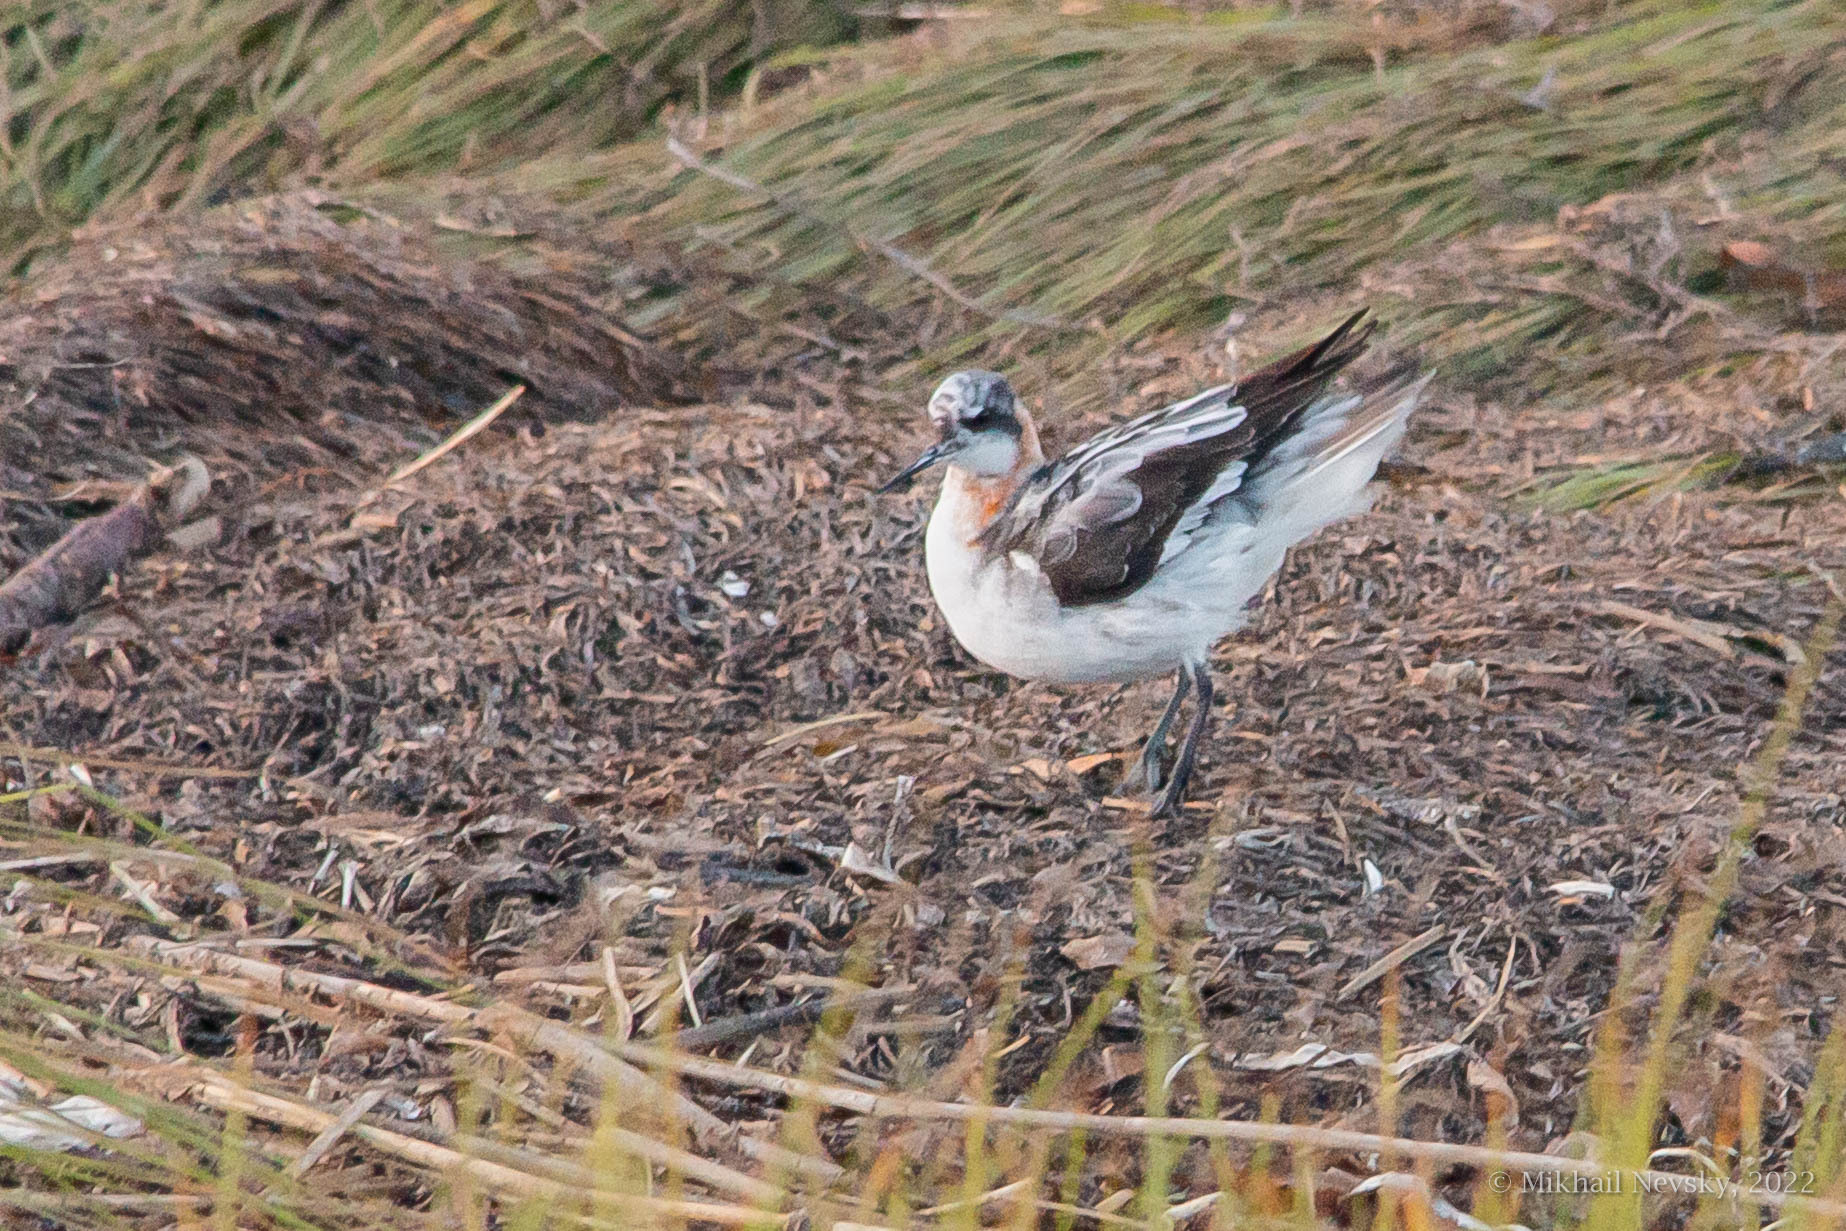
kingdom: Animalia
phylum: Chordata
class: Aves
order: Charadriiformes
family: Scolopacidae
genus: Phalaropus
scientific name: Phalaropus lobatus
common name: Red-necked phalarope
